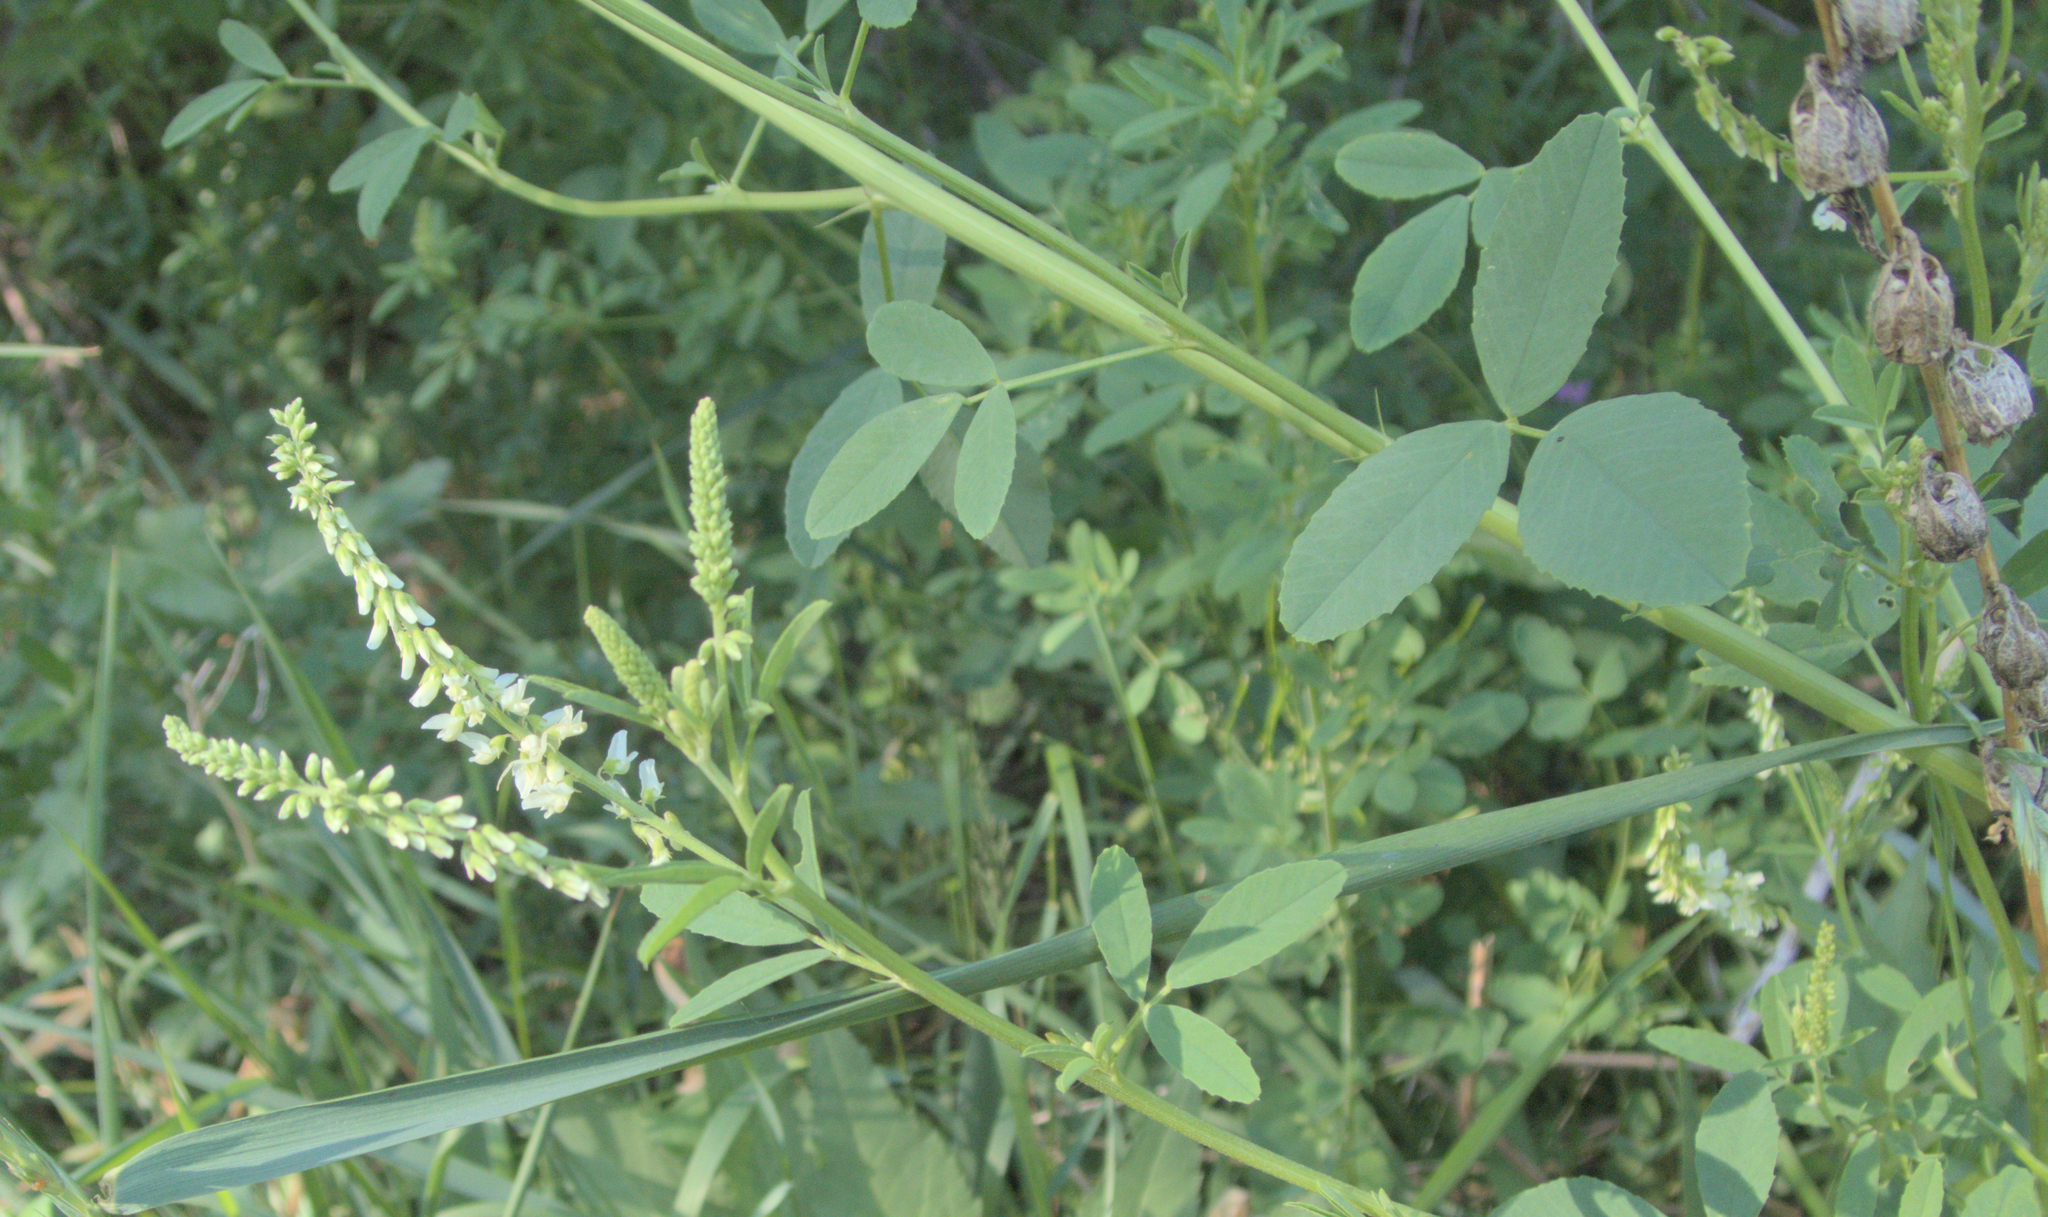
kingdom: Plantae
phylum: Tracheophyta
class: Magnoliopsida
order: Fabales
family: Fabaceae
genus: Melilotus
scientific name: Melilotus albus
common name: White melilot
